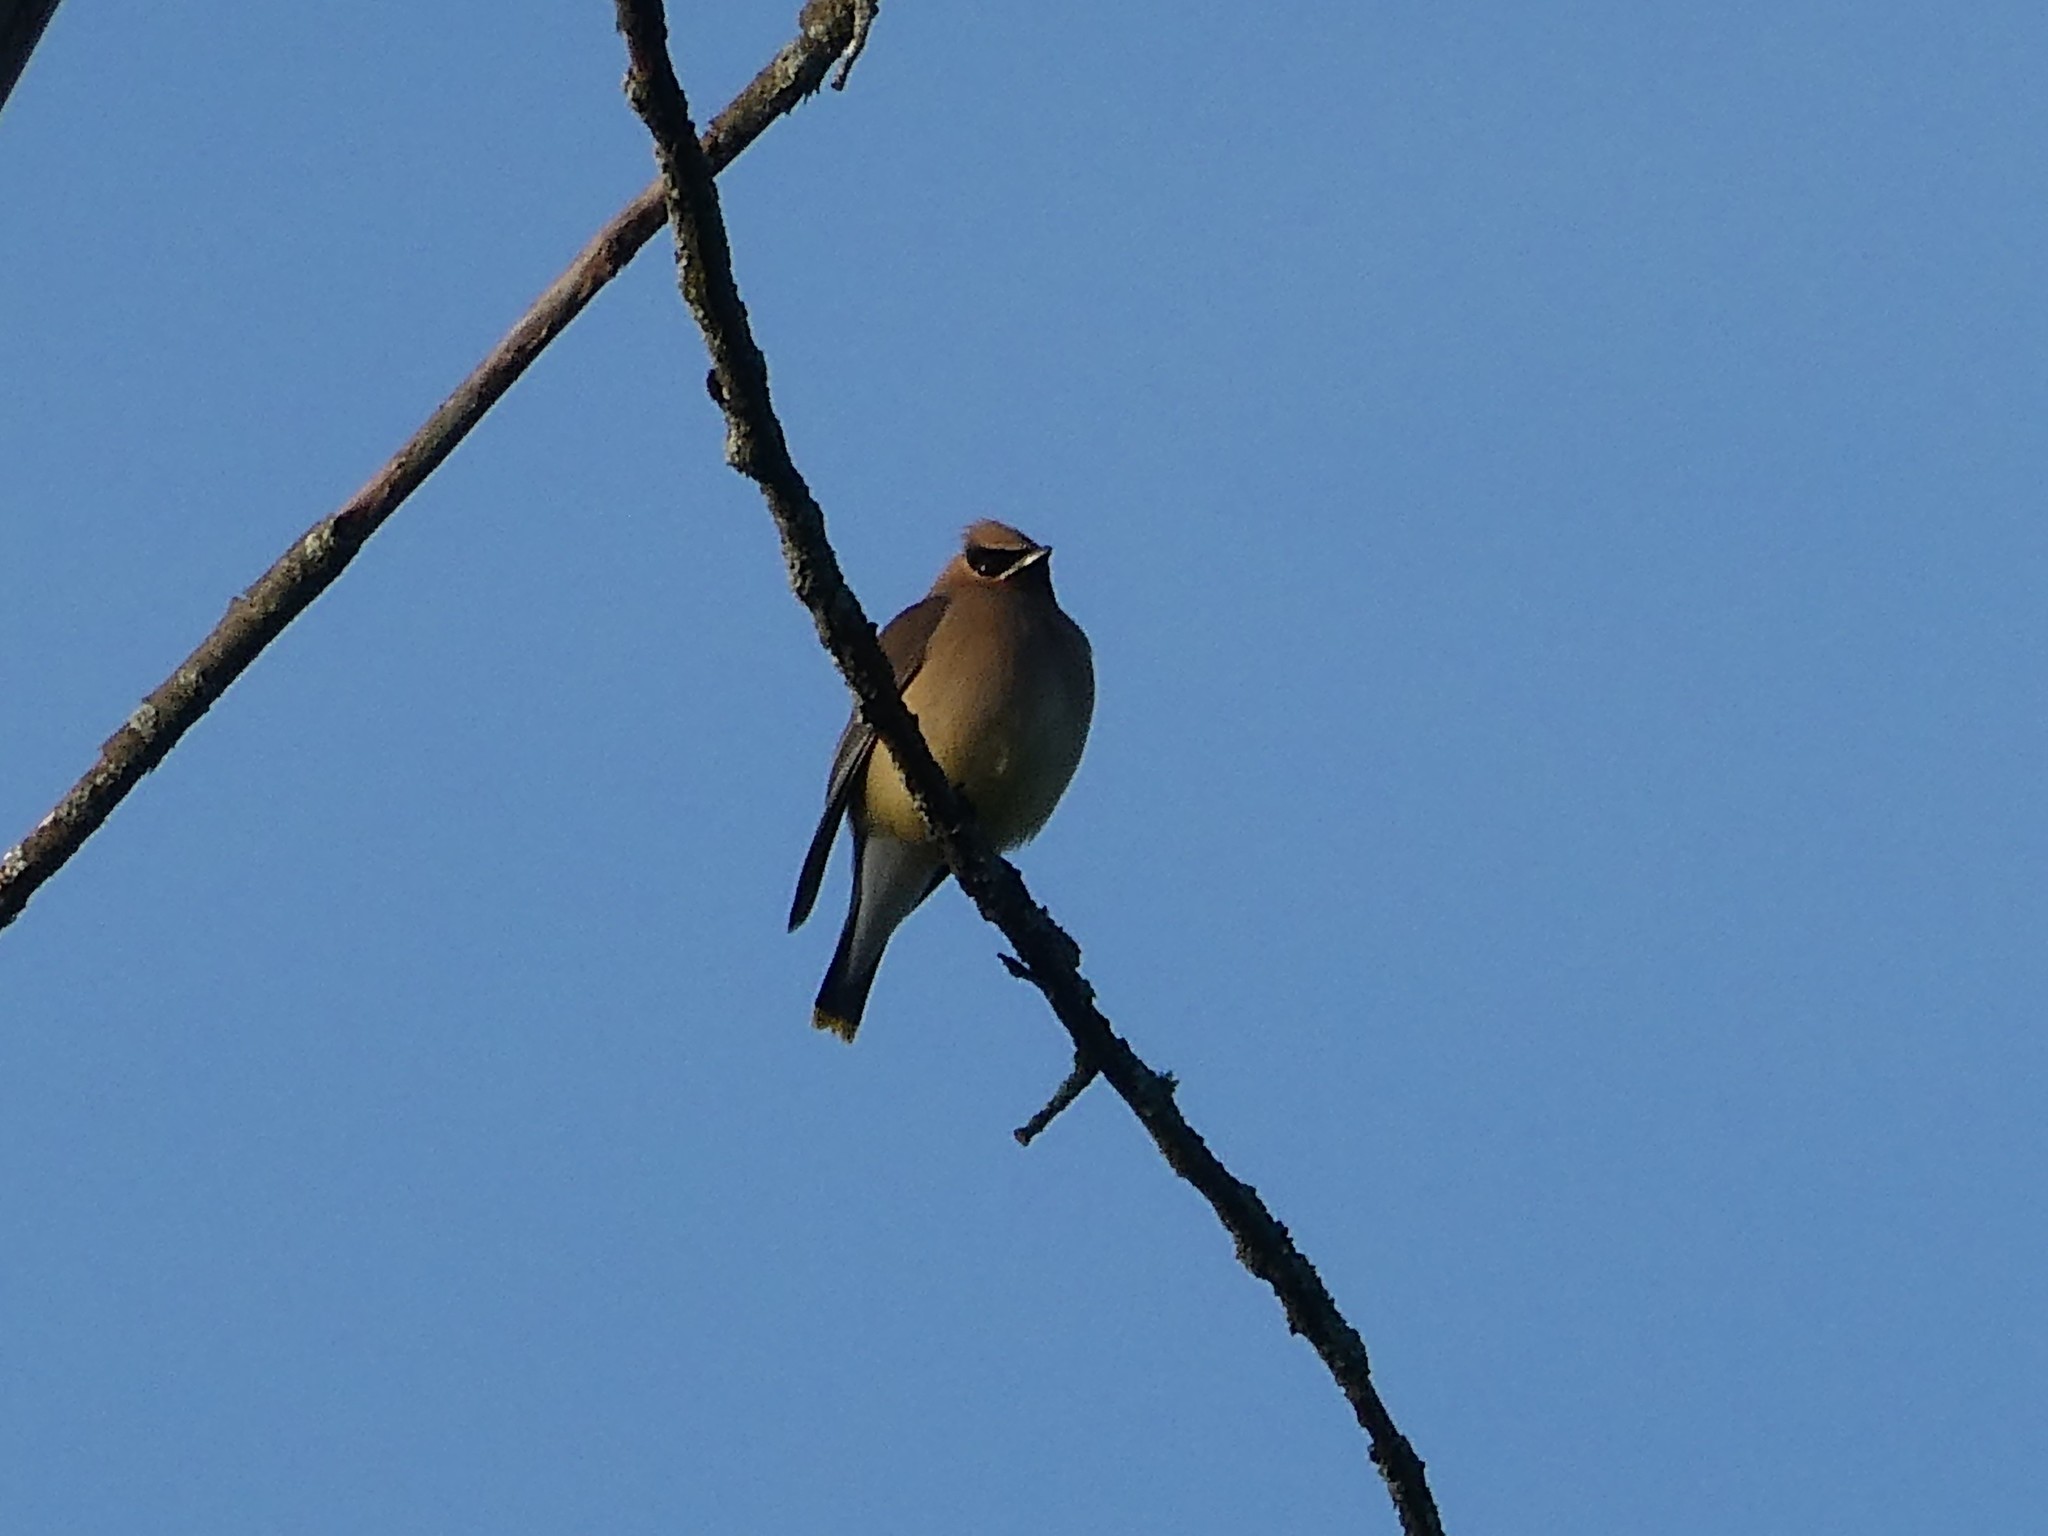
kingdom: Animalia
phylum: Chordata
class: Aves
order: Passeriformes
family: Bombycillidae
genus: Bombycilla
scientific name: Bombycilla cedrorum
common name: Cedar waxwing
